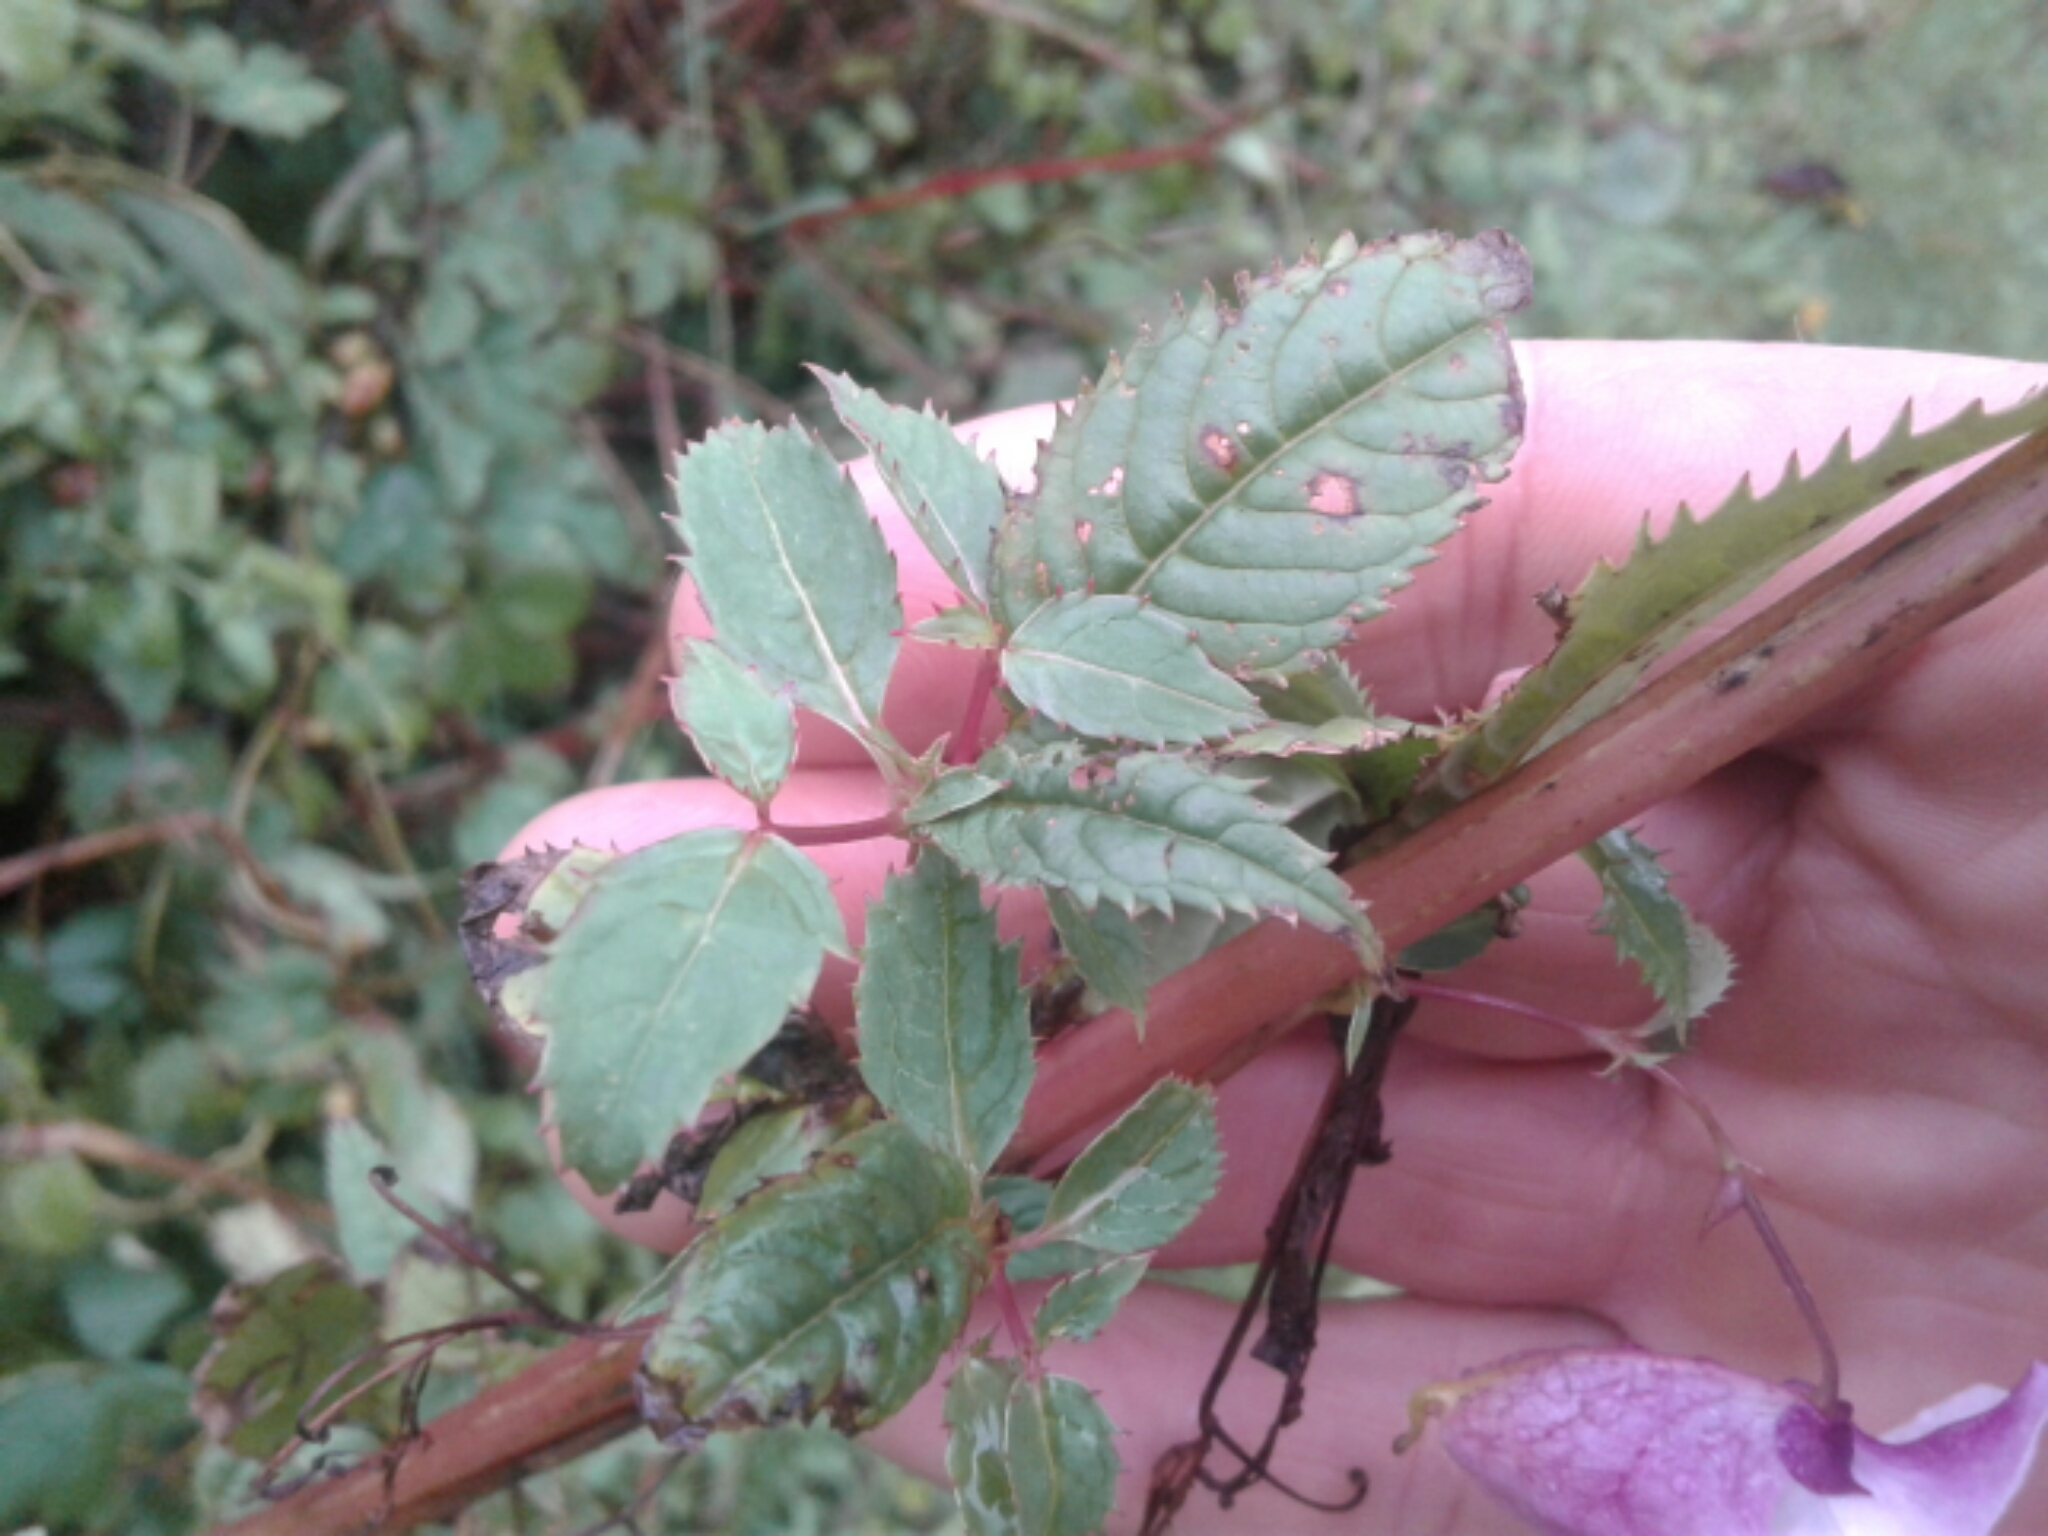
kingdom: Plantae
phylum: Tracheophyta
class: Magnoliopsida
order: Ericales
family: Balsaminaceae
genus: Impatiens
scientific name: Impatiens glandulifera
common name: Himalayan balsam
